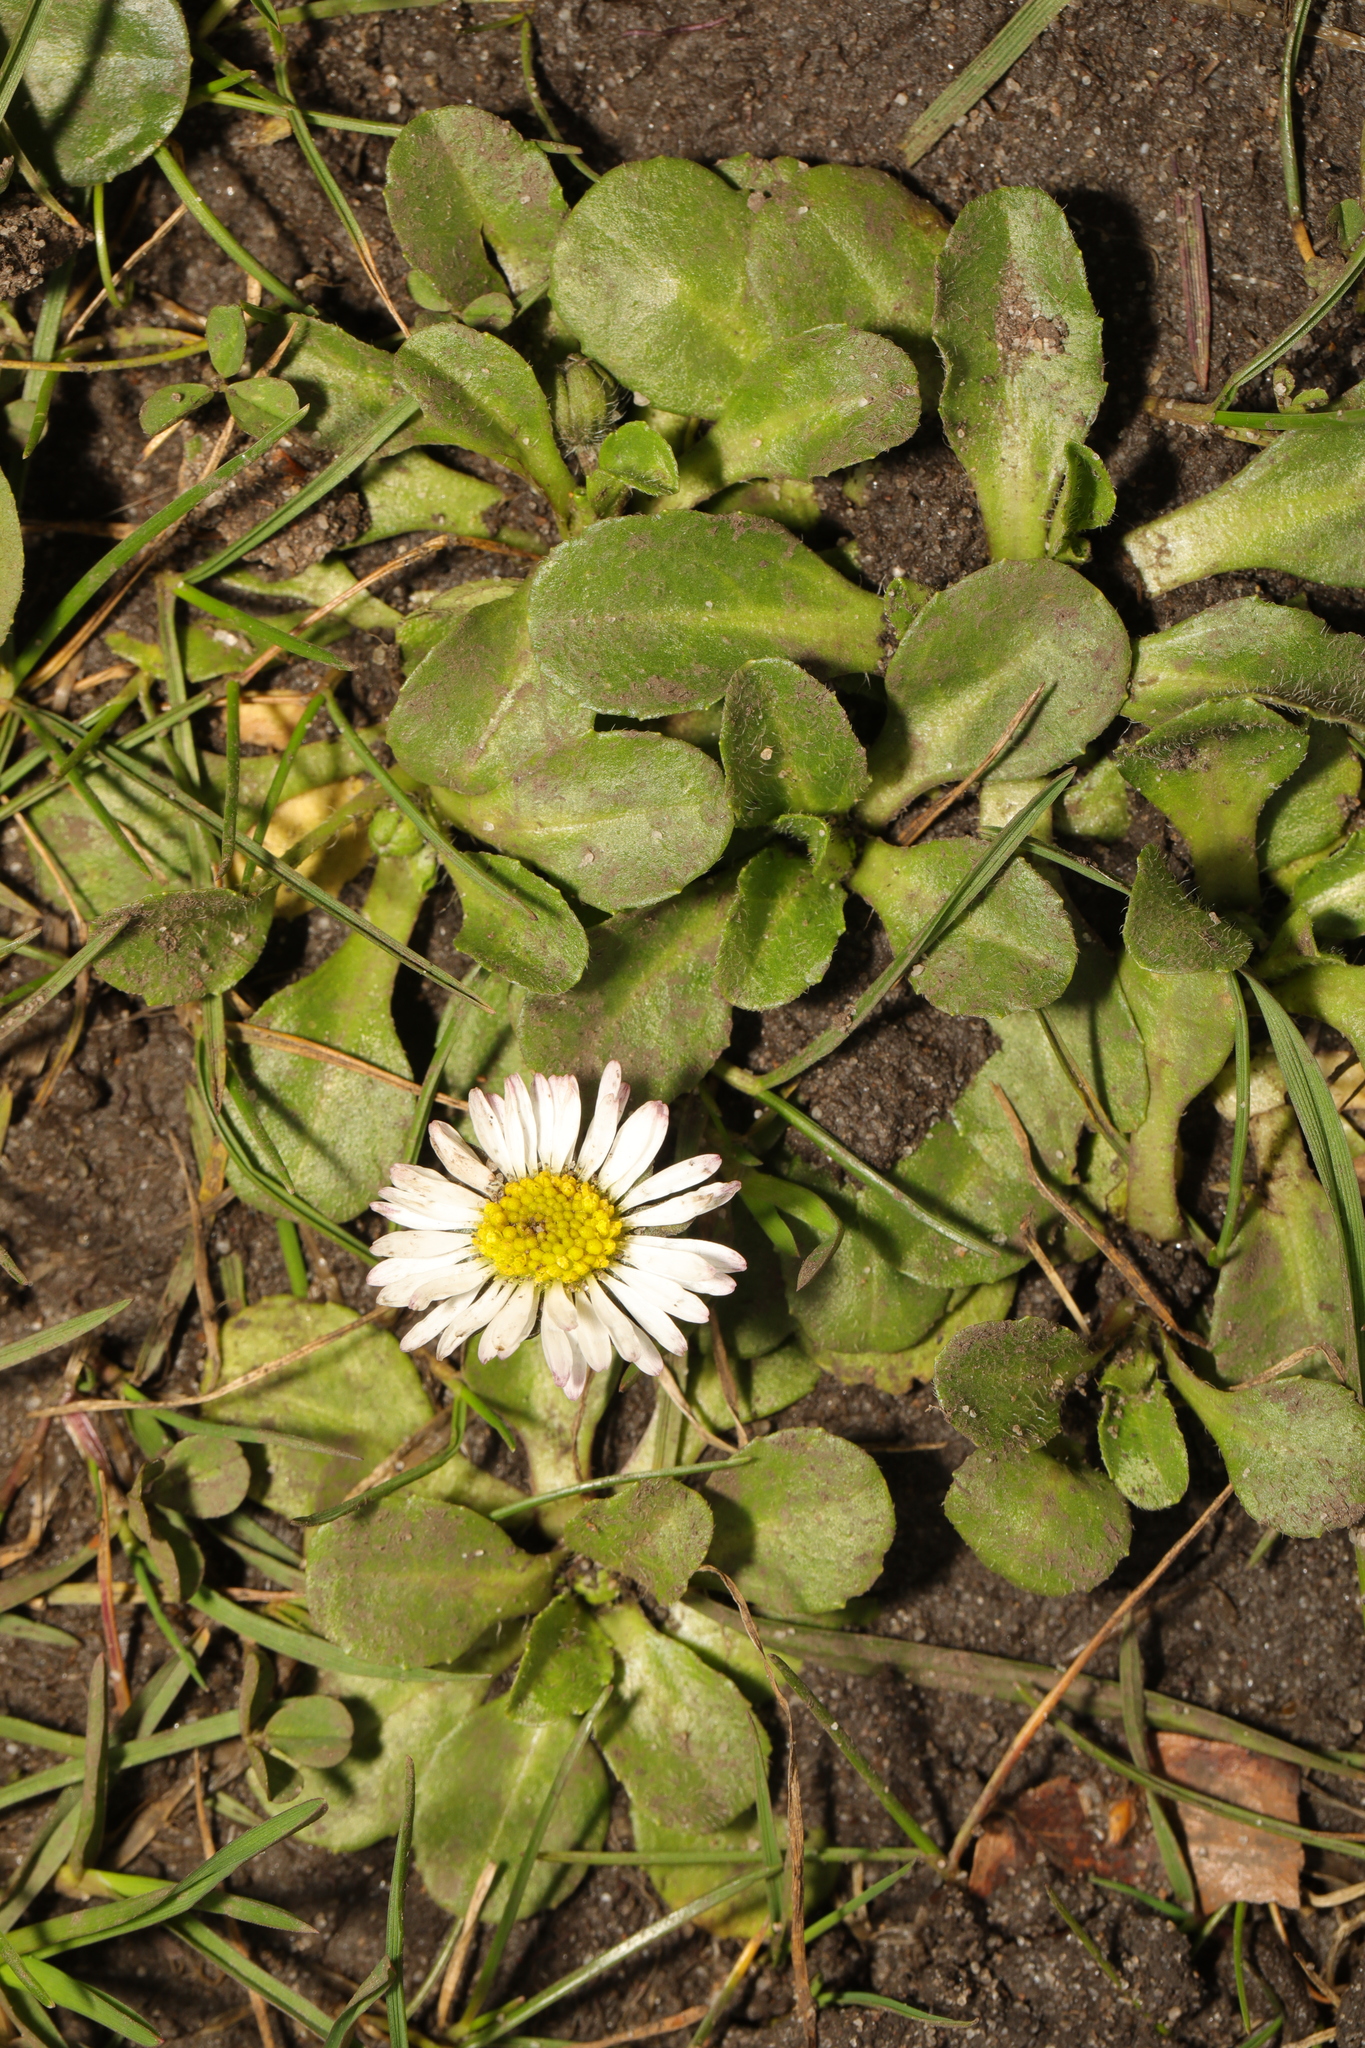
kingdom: Plantae
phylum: Tracheophyta
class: Magnoliopsida
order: Asterales
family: Asteraceae
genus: Bellis
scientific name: Bellis perennis
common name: Lawndaisy
